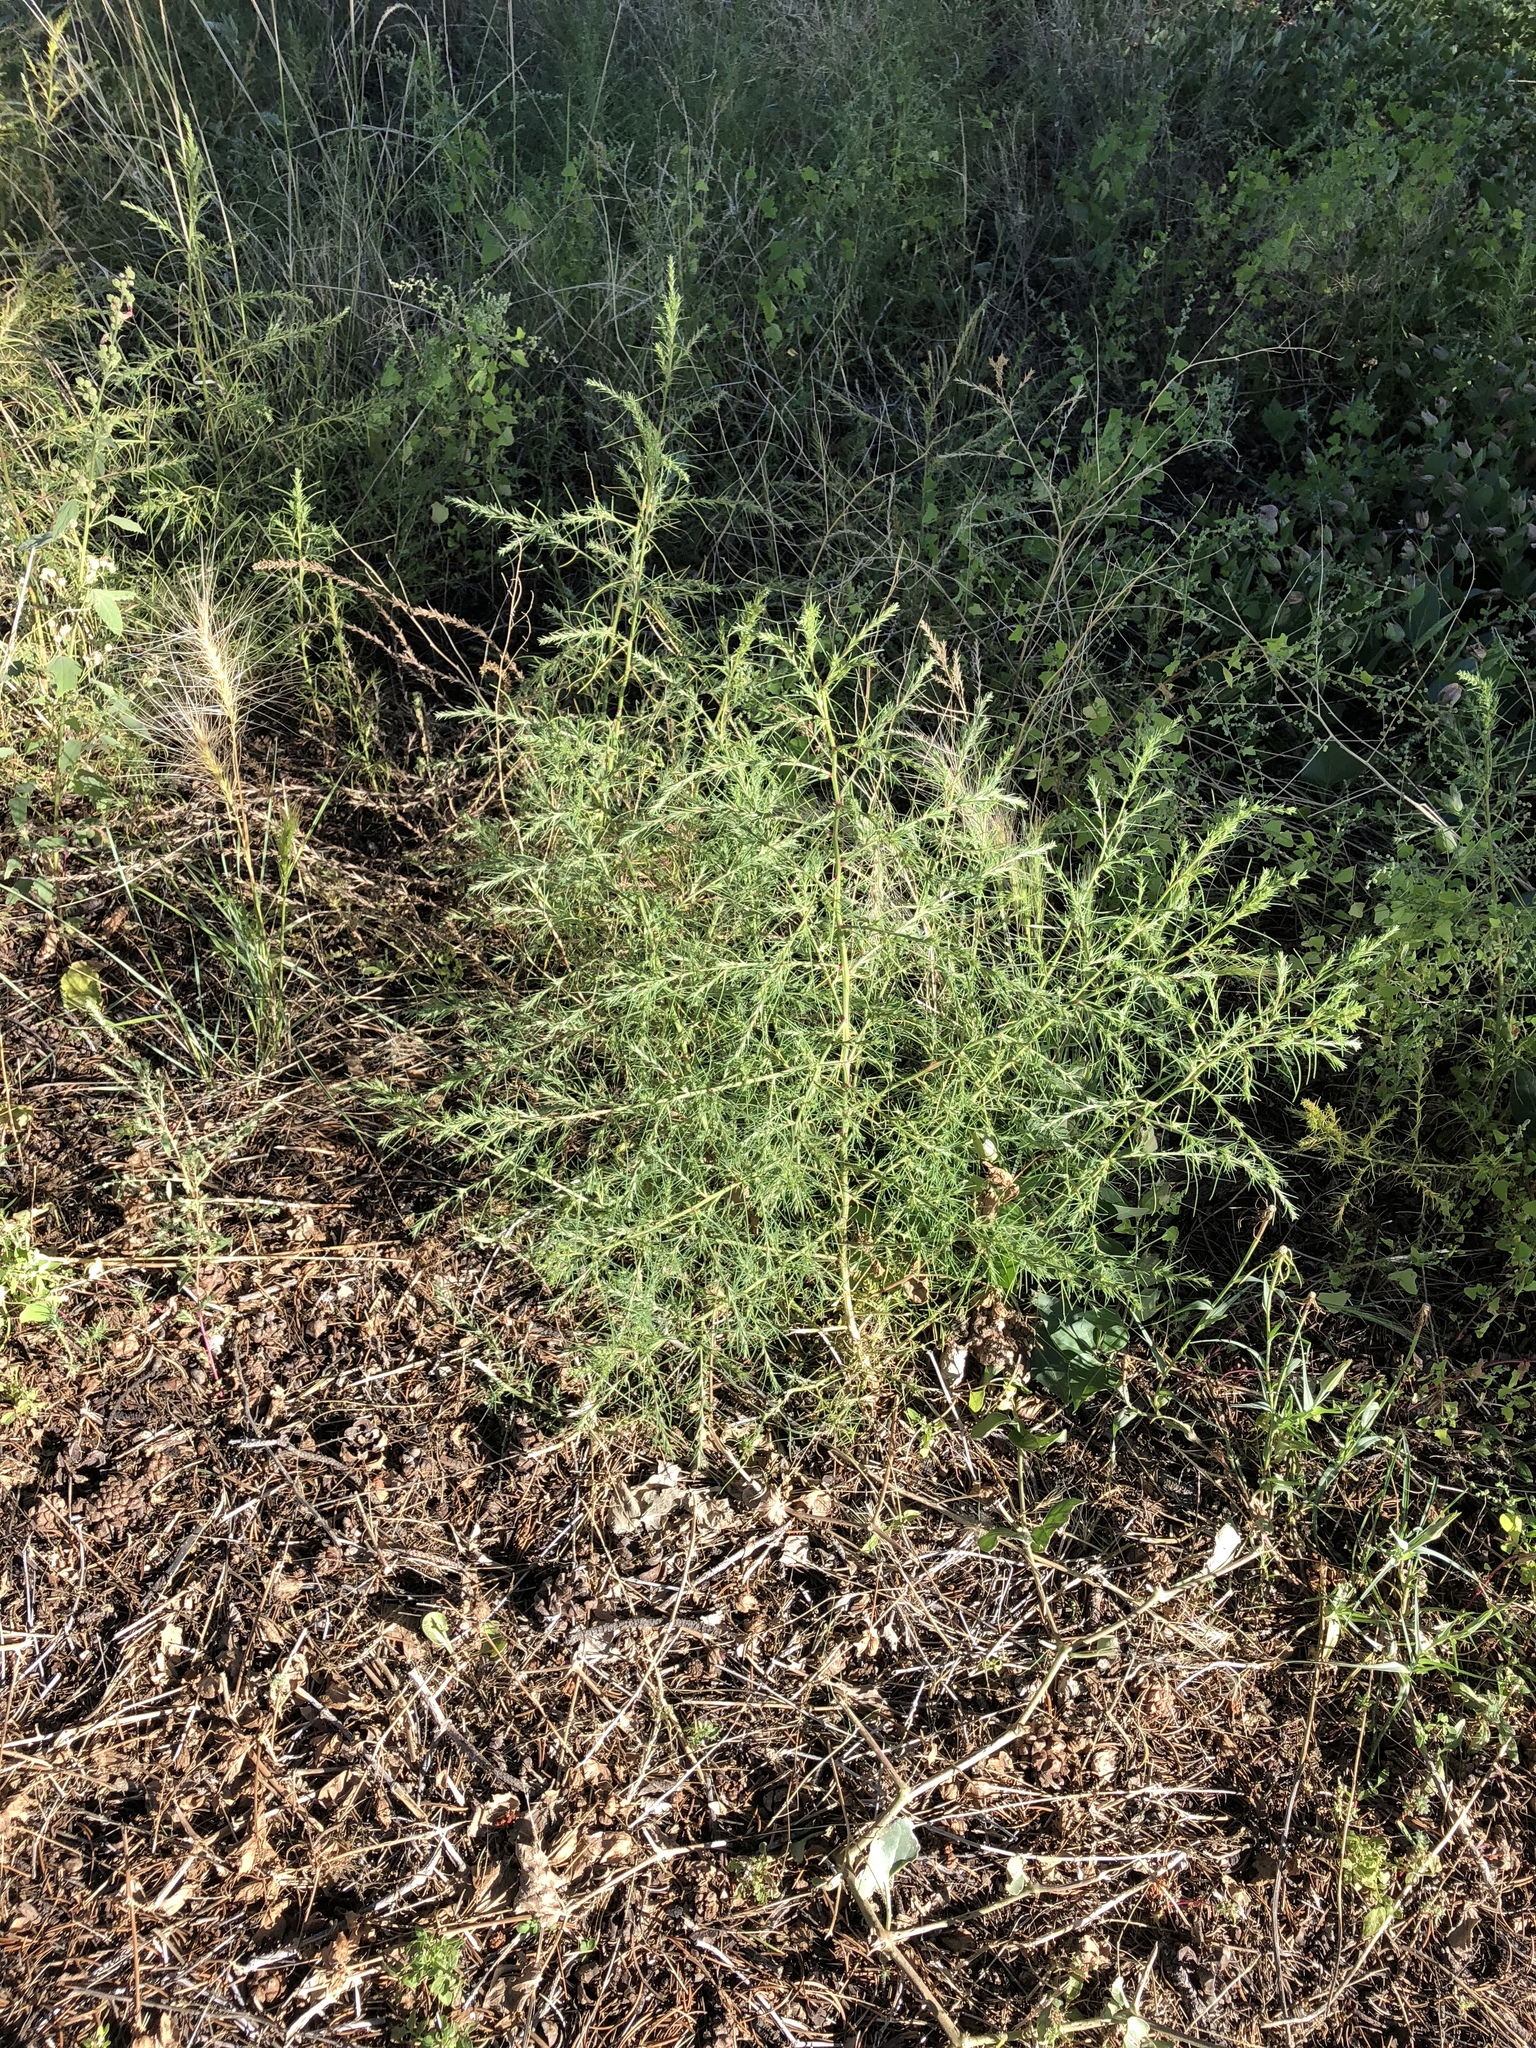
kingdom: Plantae
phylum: Tracheophyta
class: Magnoliopsida
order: Apiales
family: Apiaceae
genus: Foeniculum
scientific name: Foeniculum vulgare
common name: Fennel
